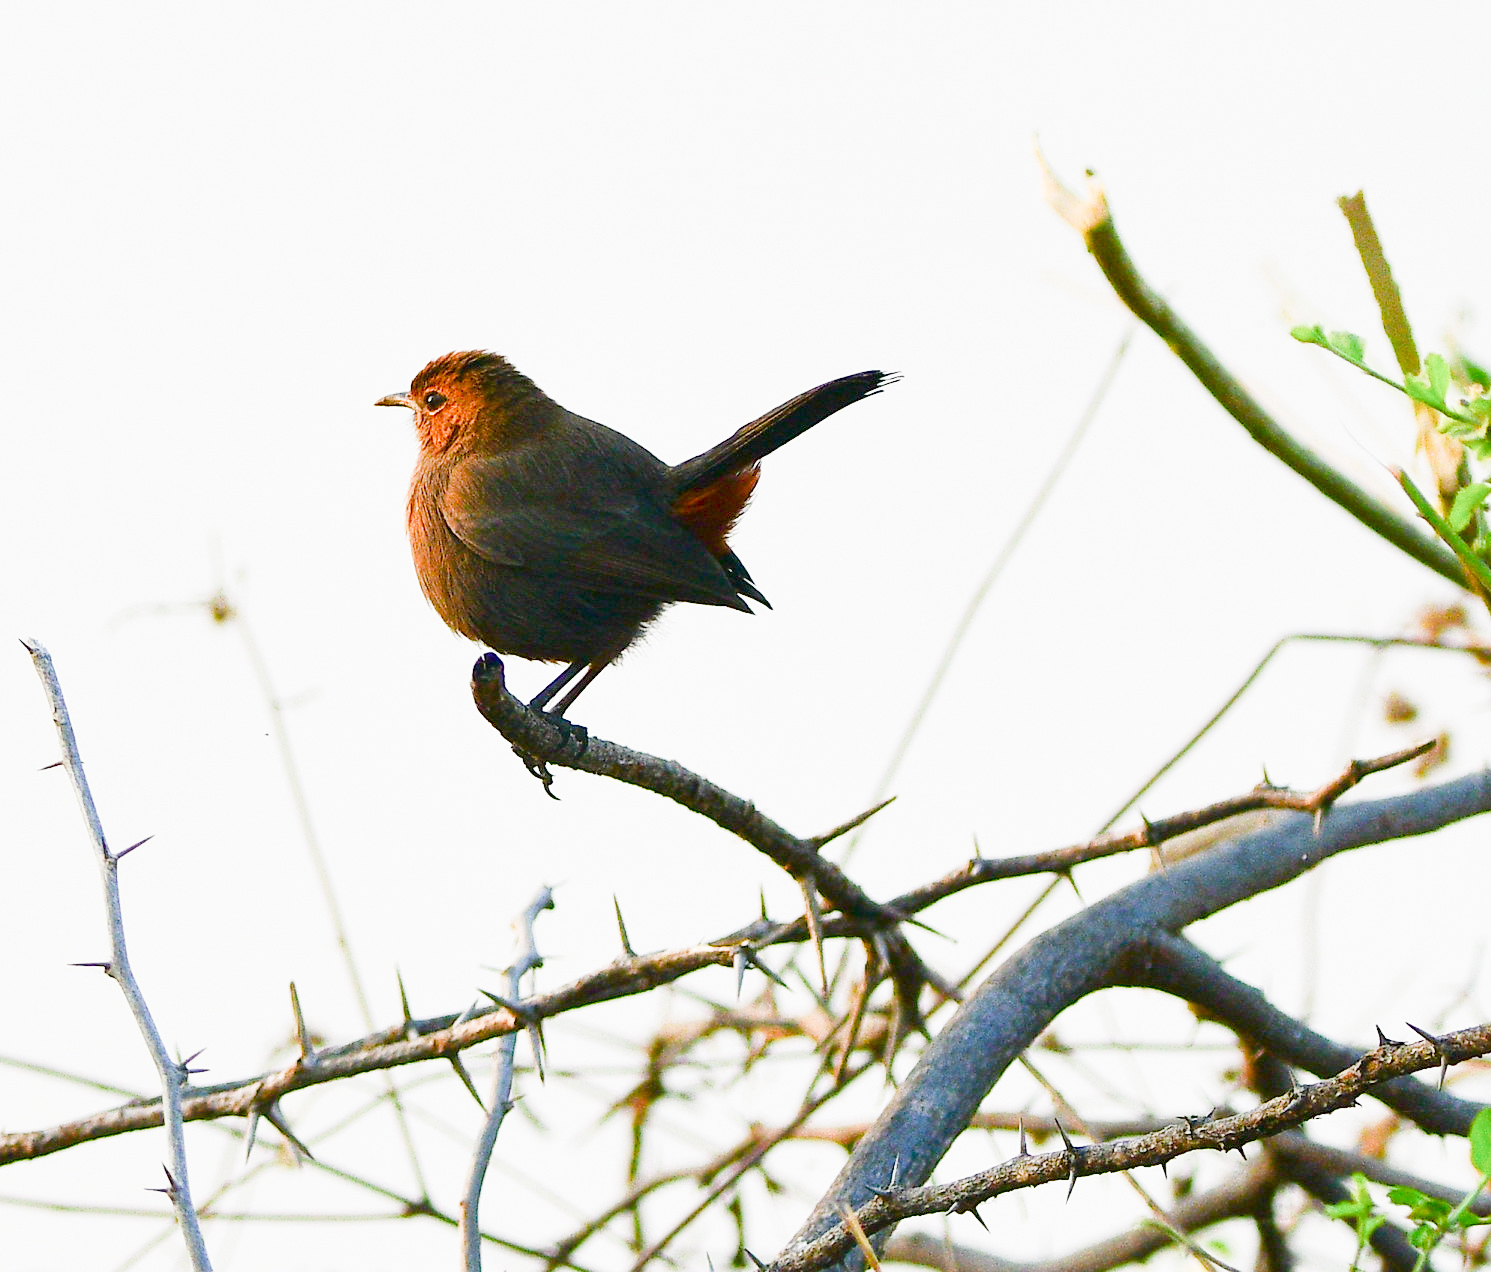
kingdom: Animalia
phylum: Chordata
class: Aves
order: Passeriformes
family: Muscicapidae
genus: Saxicoloides
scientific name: Saxicoloides fulicatus
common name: Indian robin
